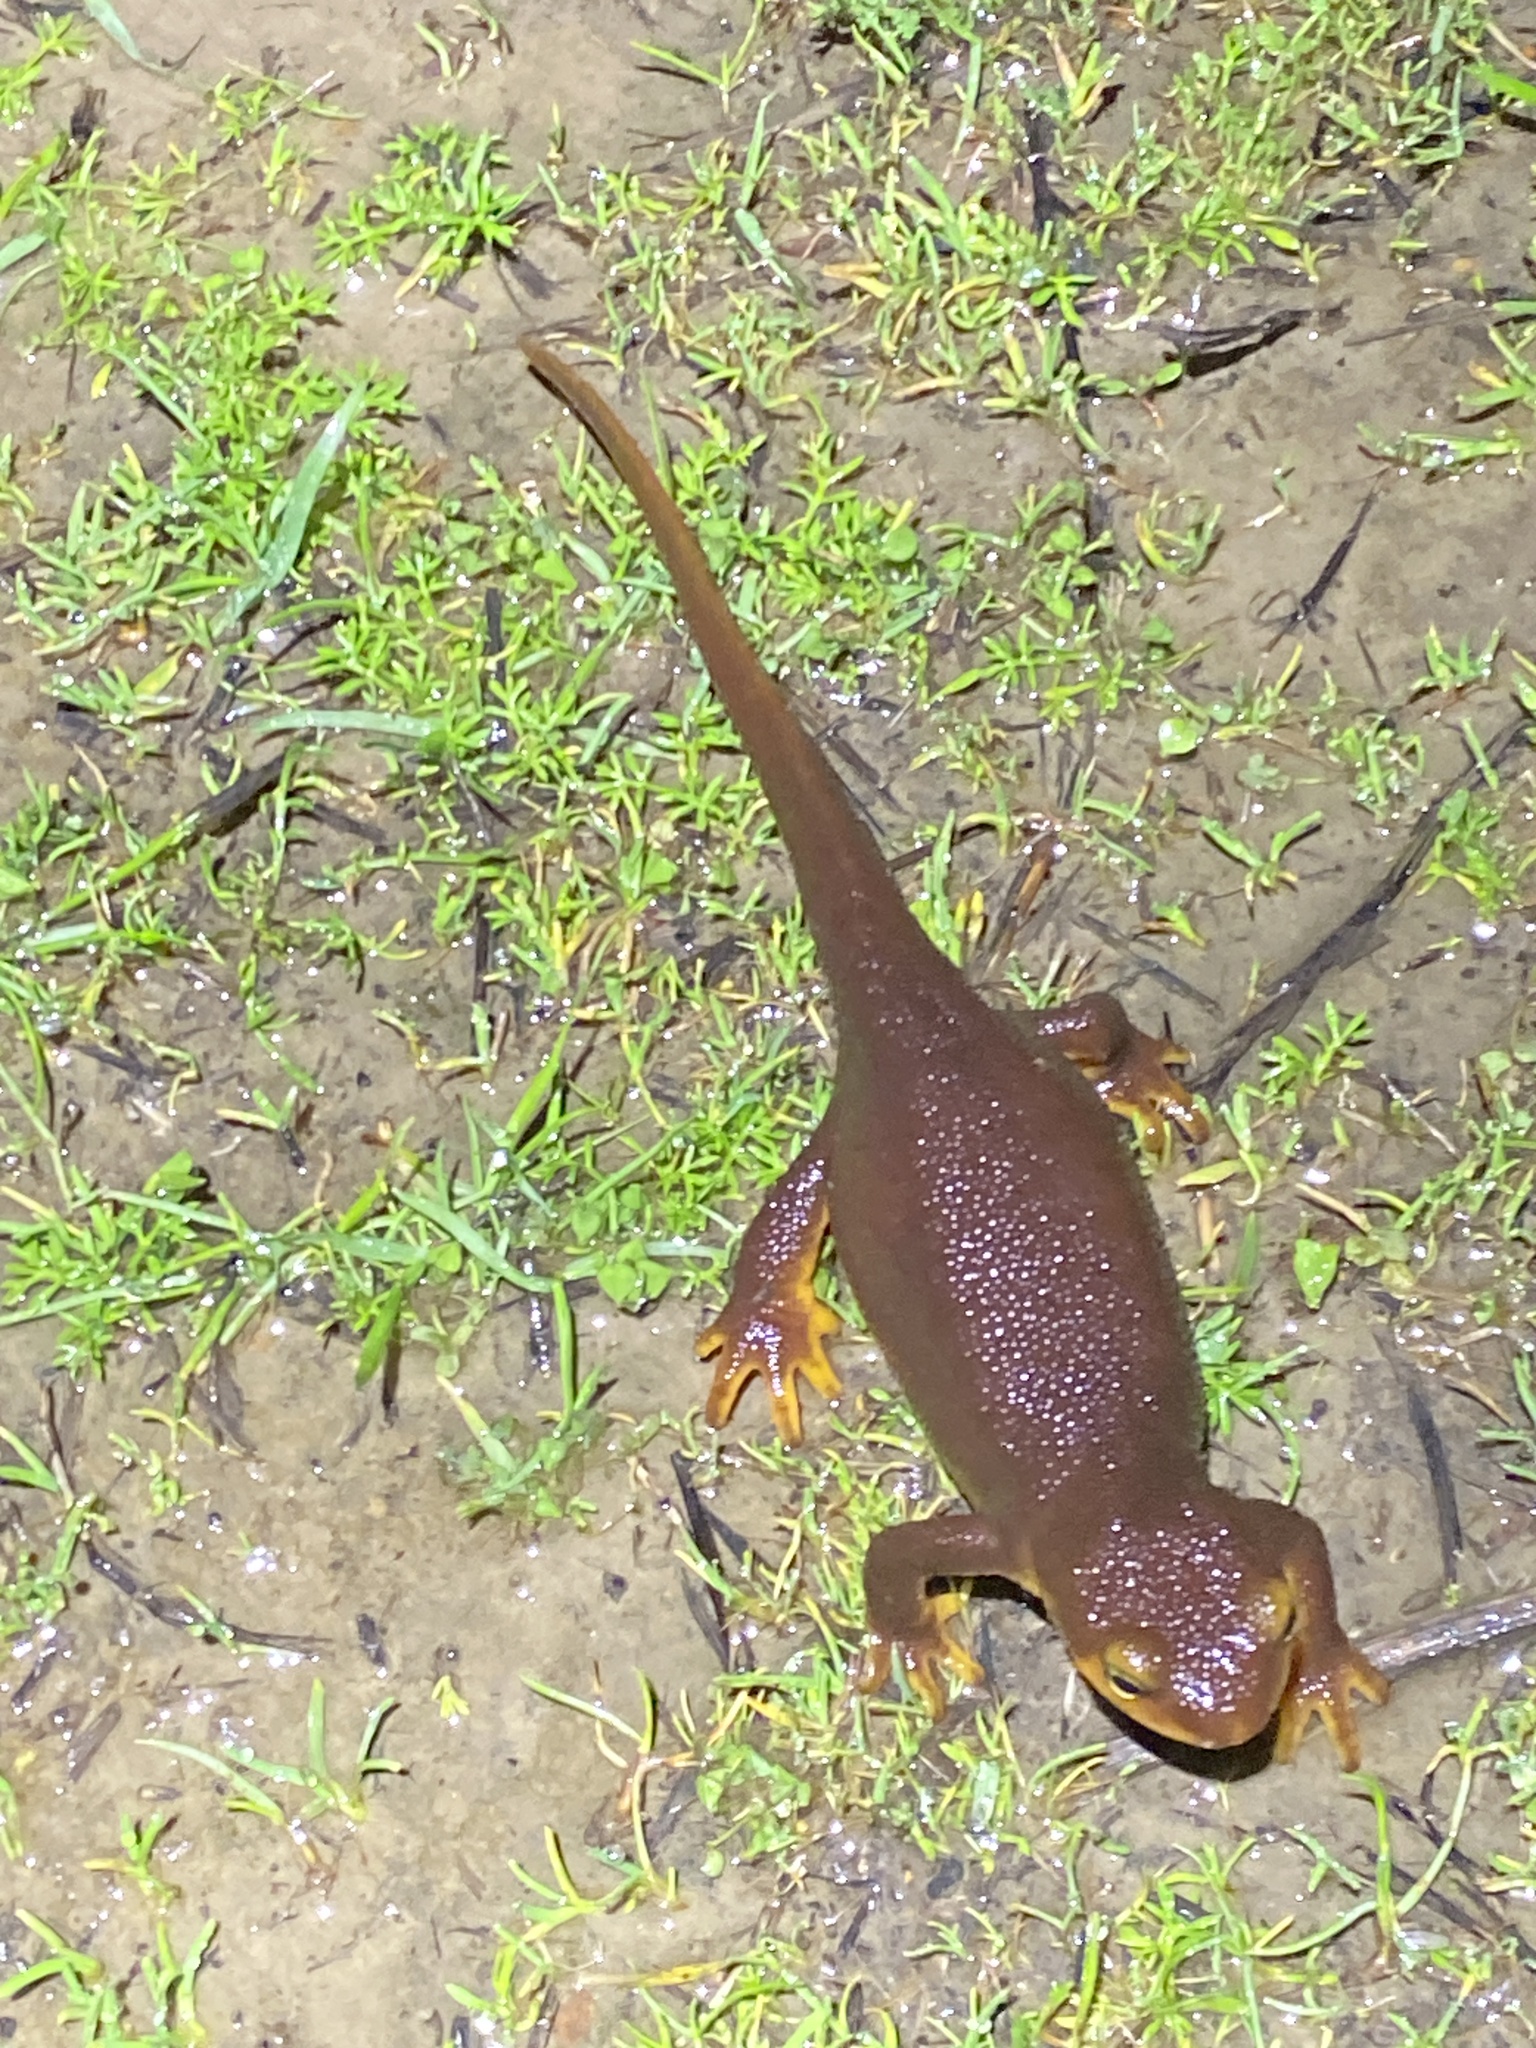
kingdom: Animalia
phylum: Chordata
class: Amphibia
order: Caudata
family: Salamandridae
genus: Taricha
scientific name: Taricha torosa
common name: California newt
